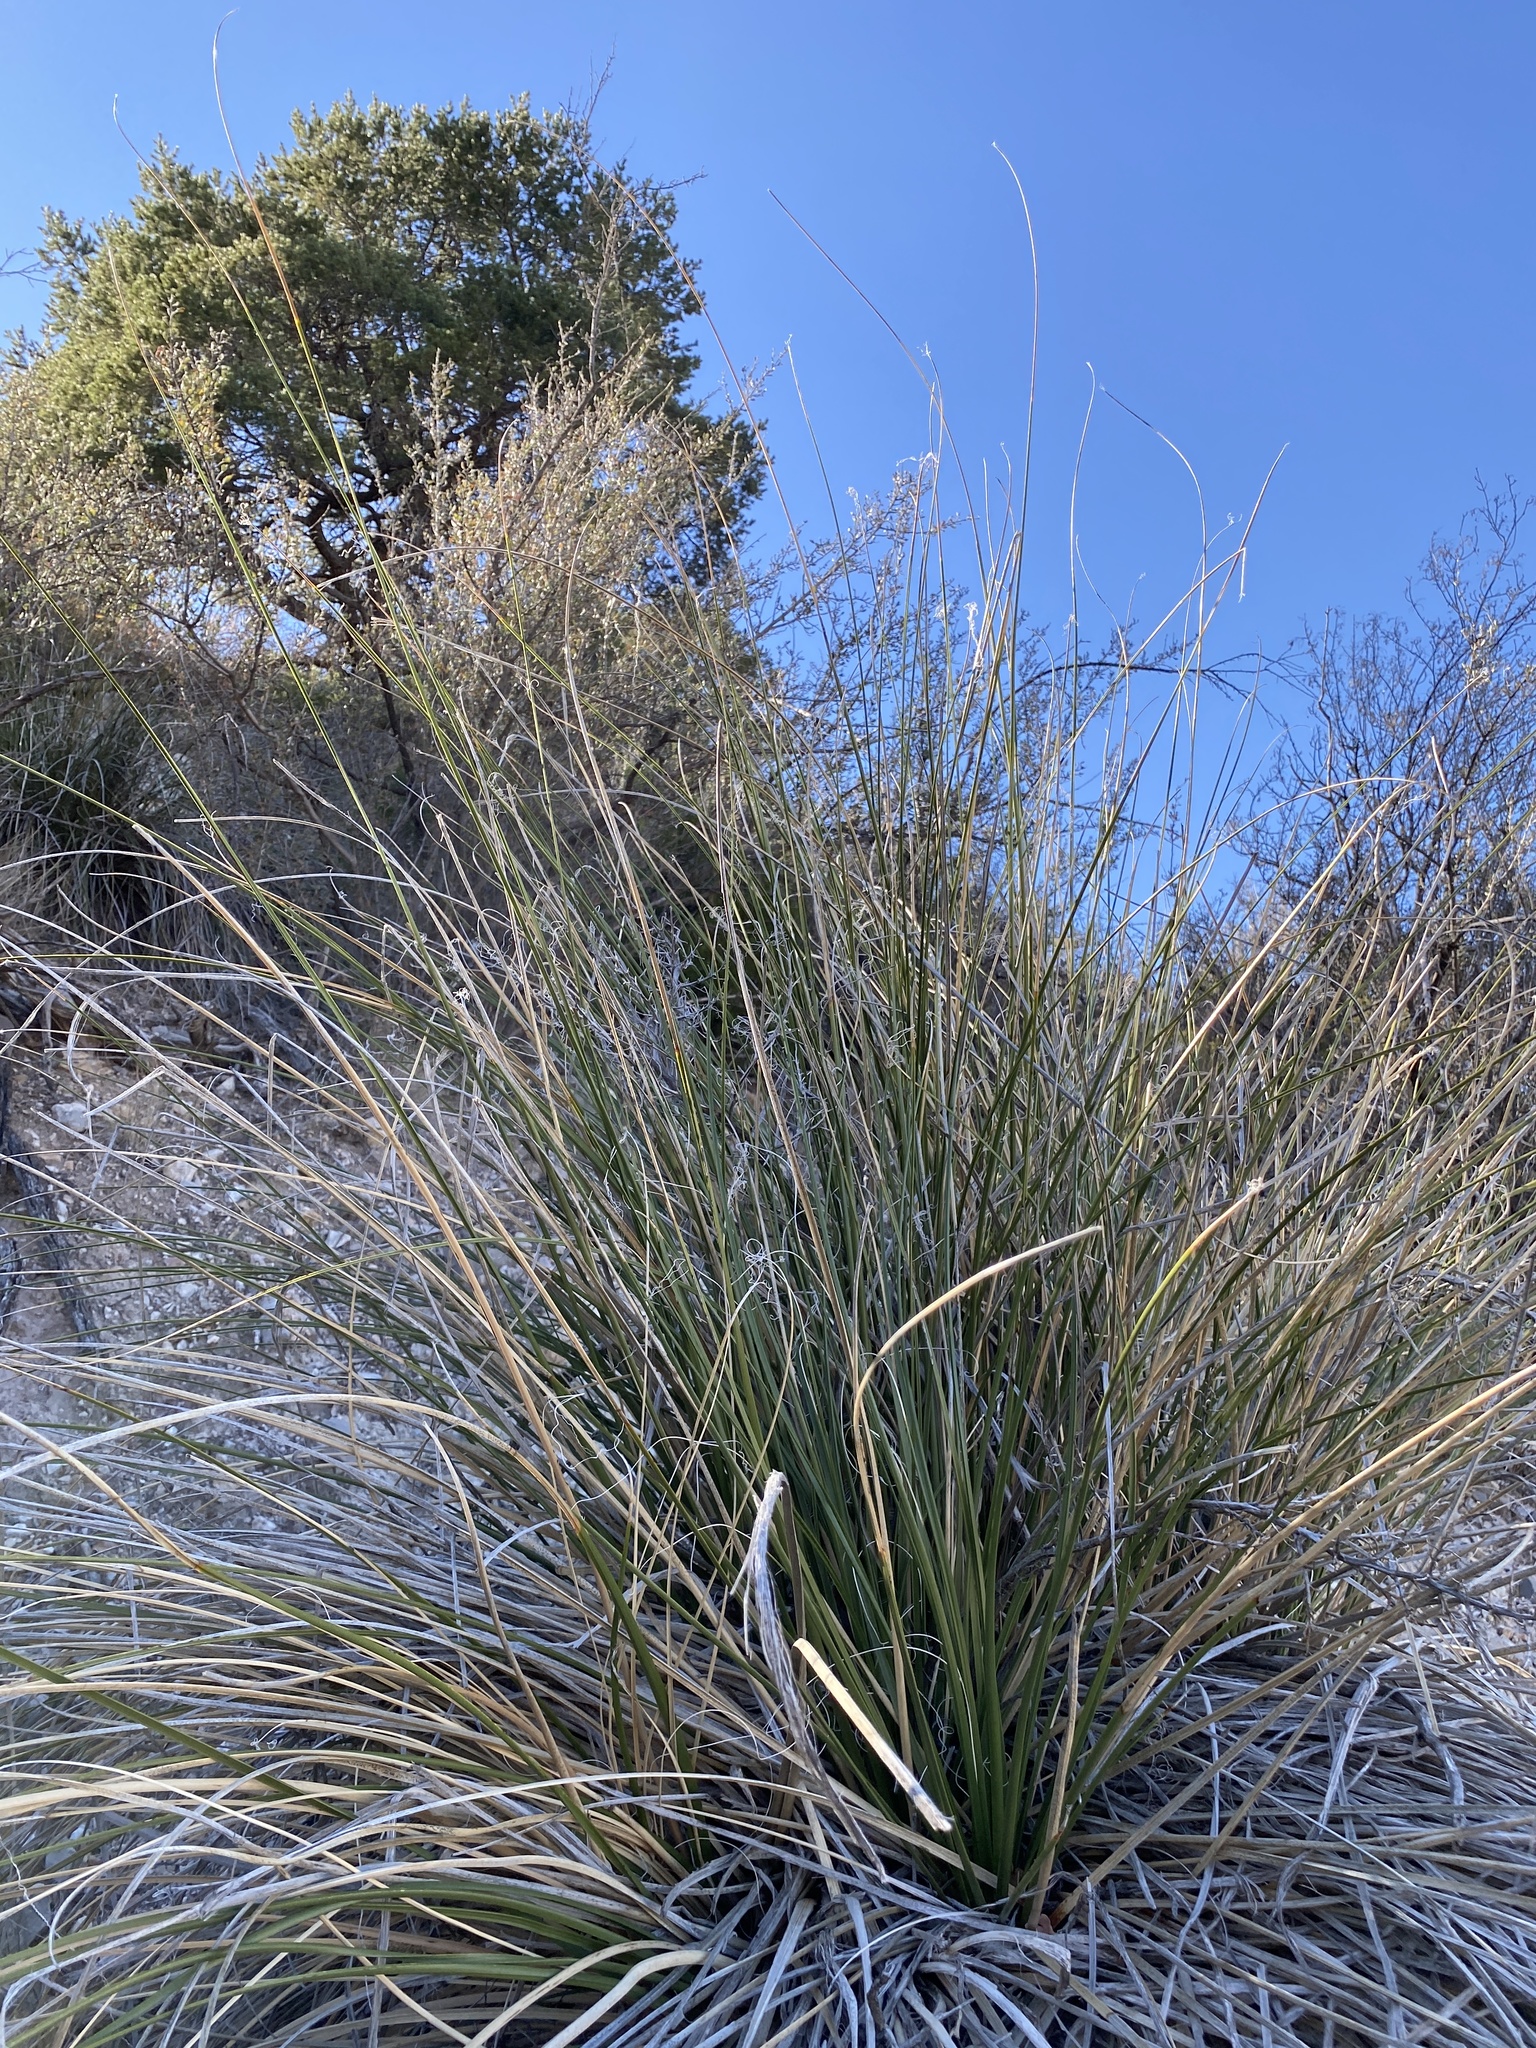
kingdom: Plantae
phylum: Tracheophyta
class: Liliopsida
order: Asparagales
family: Asparagaceae
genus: Nolina
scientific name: Nolina microcarpa
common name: Bear-grass
